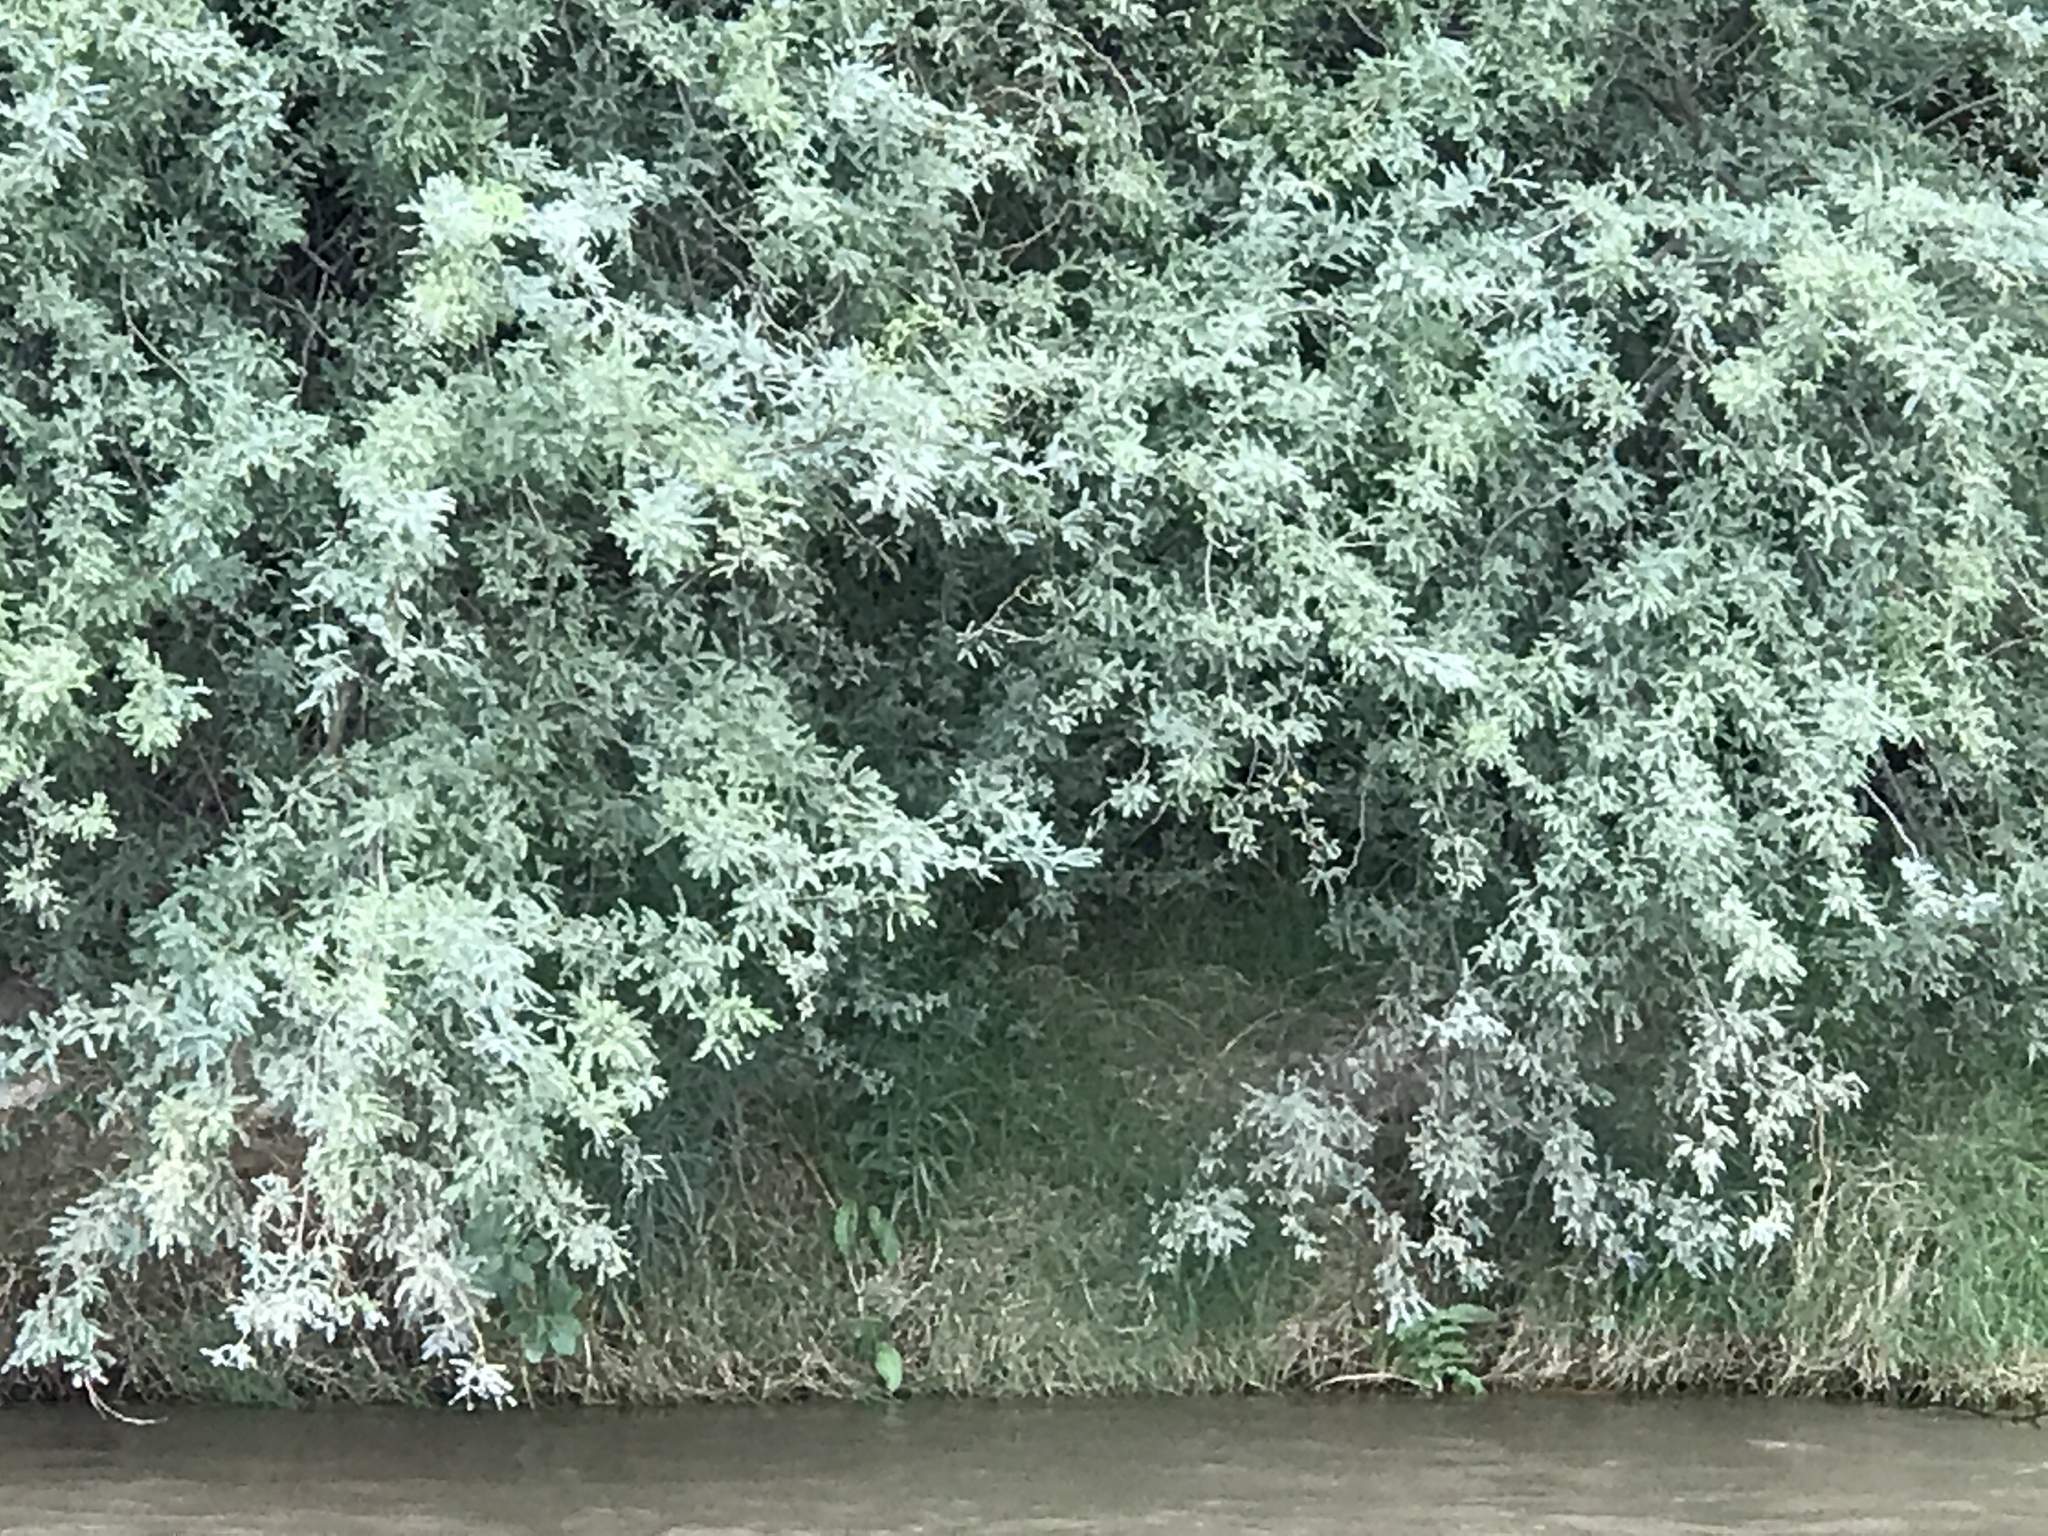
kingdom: Plantae
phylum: Tracheophyta
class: Magnoliopsida
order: Fabales
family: Fabaceae
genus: Prosopis
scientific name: Prosopis velutina
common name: Velvet mesquite
